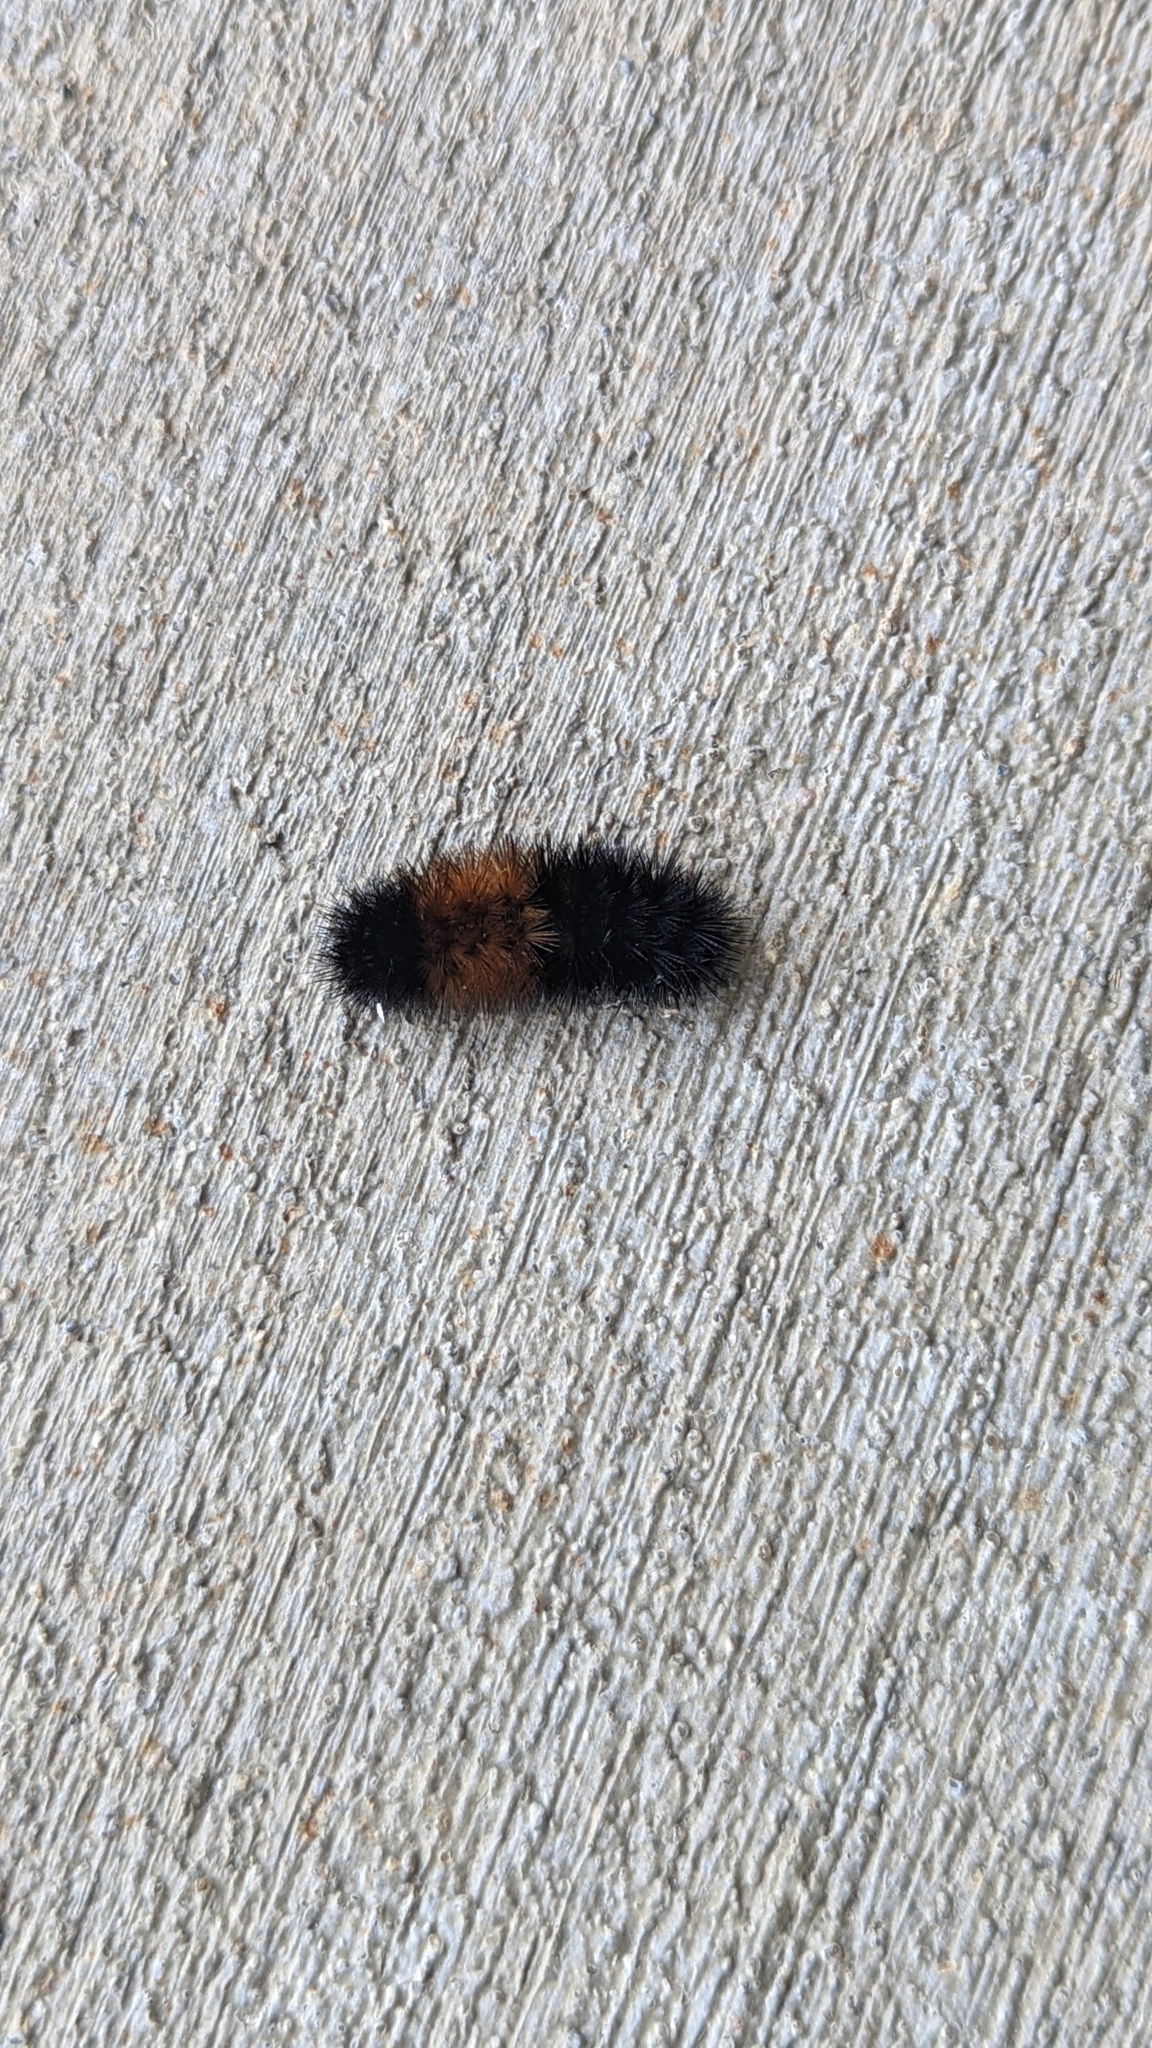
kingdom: Animalia
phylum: Arthropoda
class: Insecta
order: Lepidoptera
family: Erebidae
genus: Pyrrharctia
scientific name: Pyrrharctia isabella
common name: Isabella tiger moth
